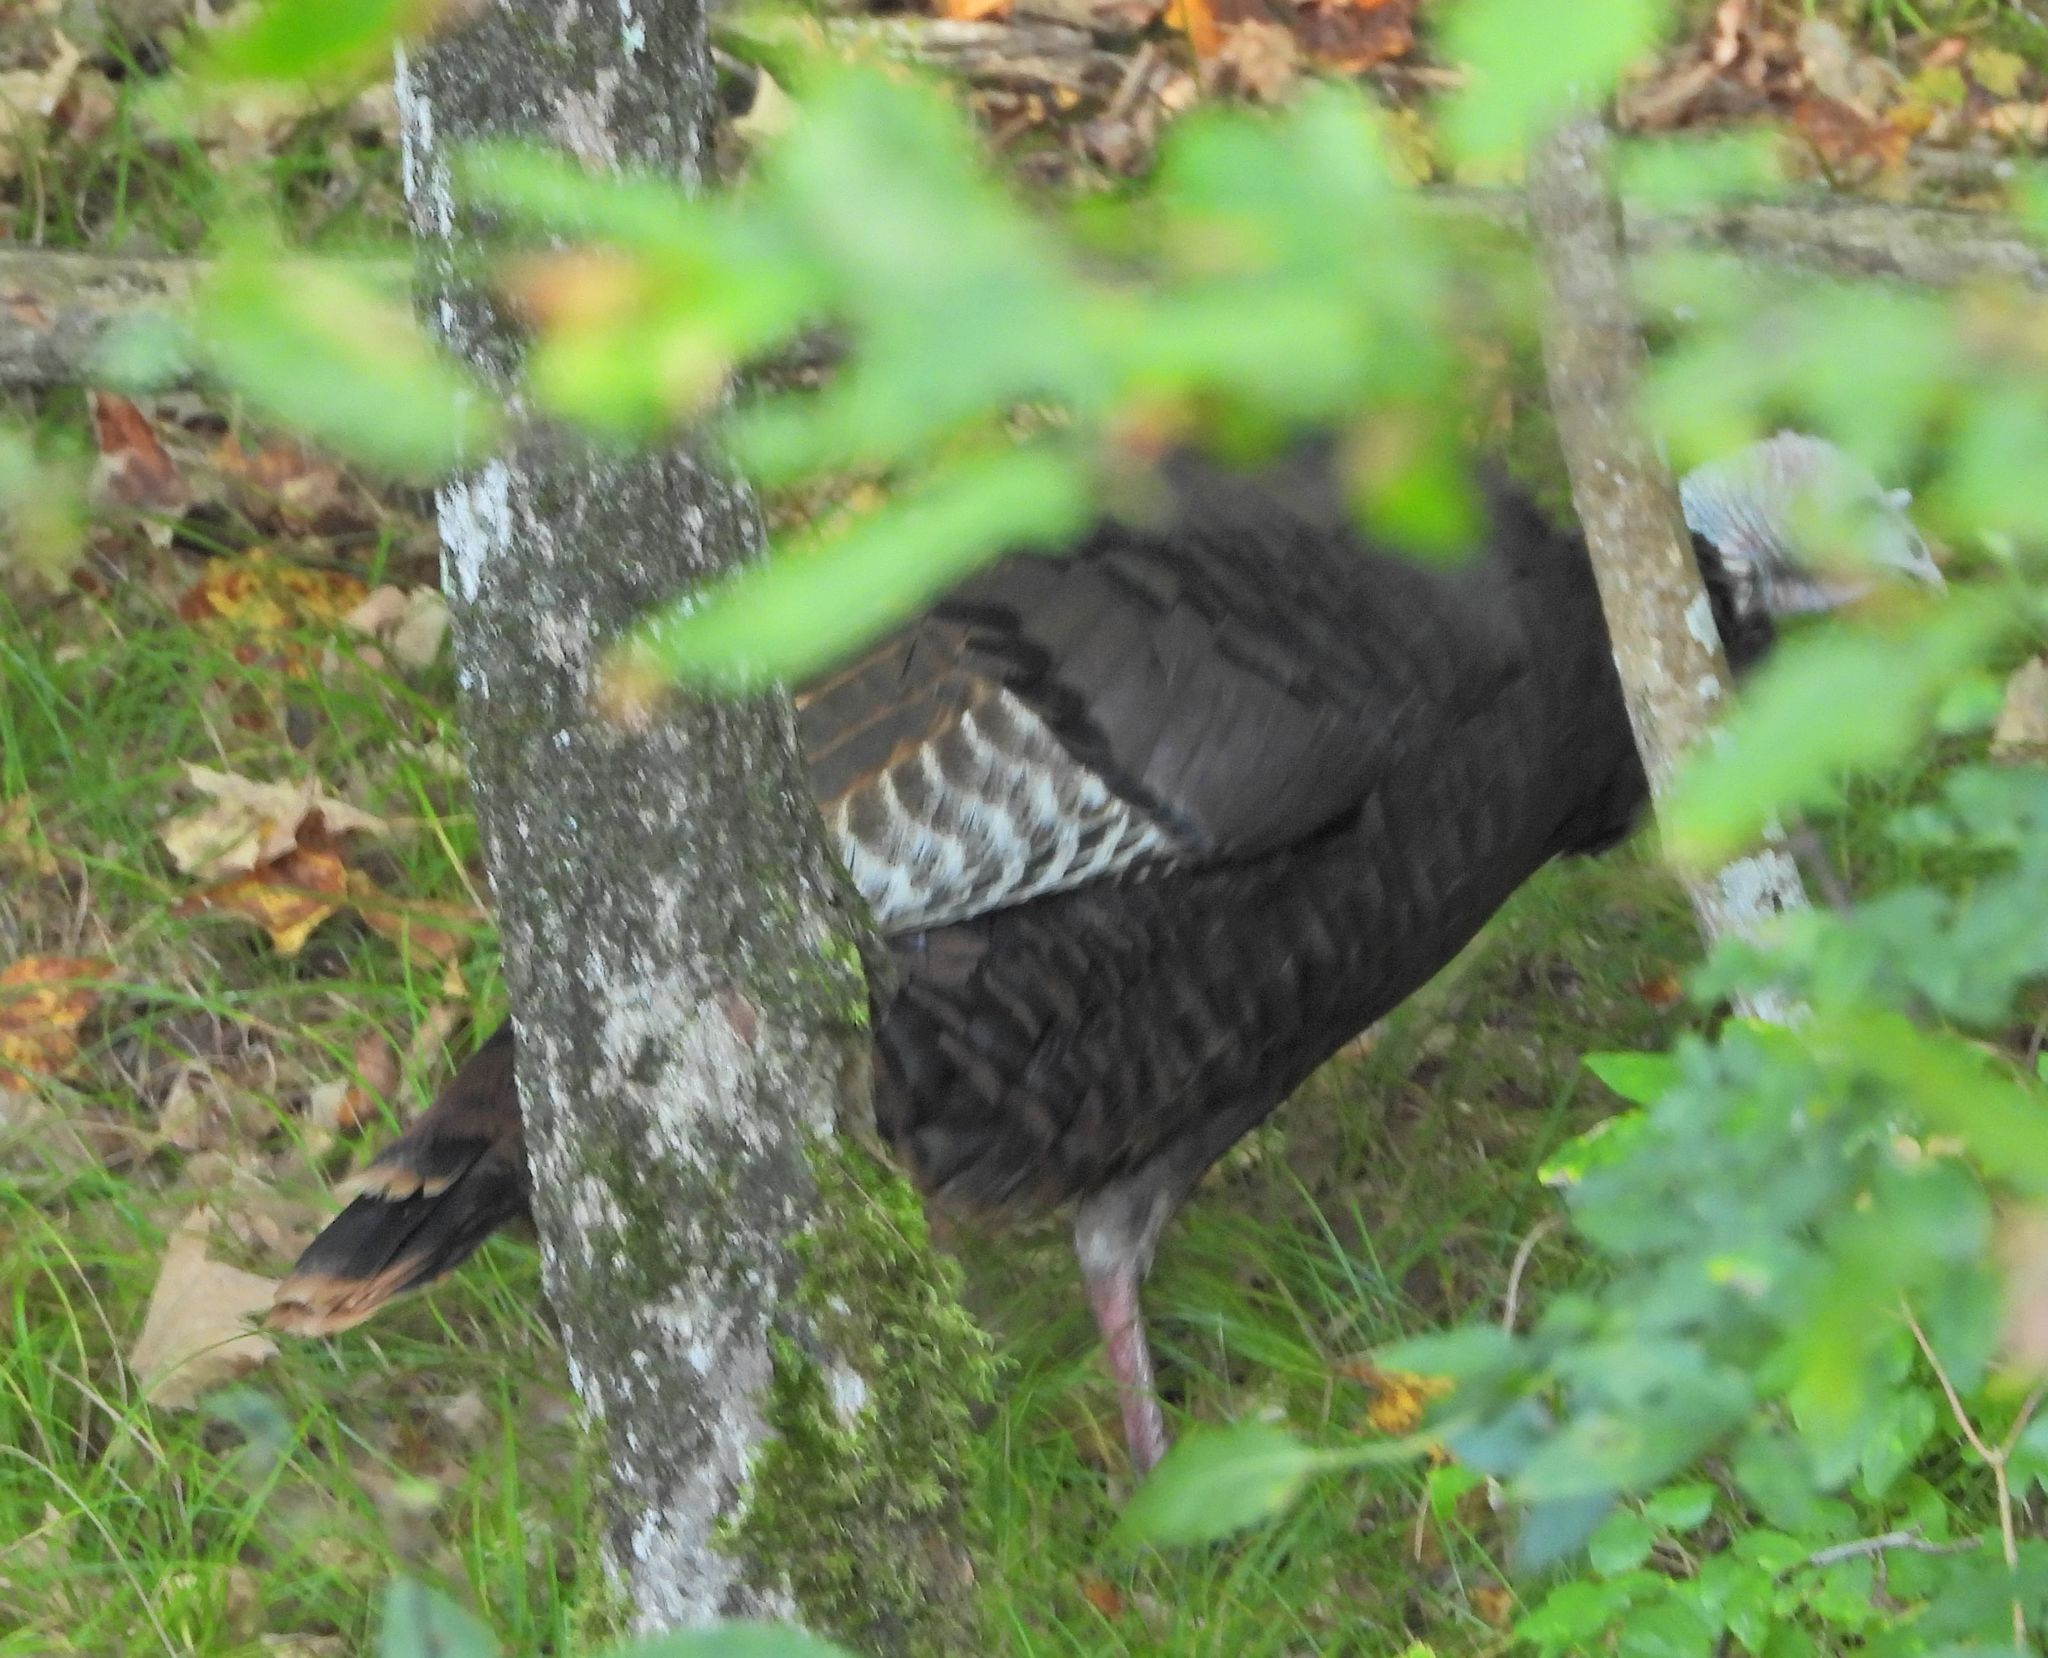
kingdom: Animalia
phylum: Chordata
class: Aves
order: Galliformes
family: Phasianidae
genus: Meleagris
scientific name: Meleagris gallopavo
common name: Wild turkey
